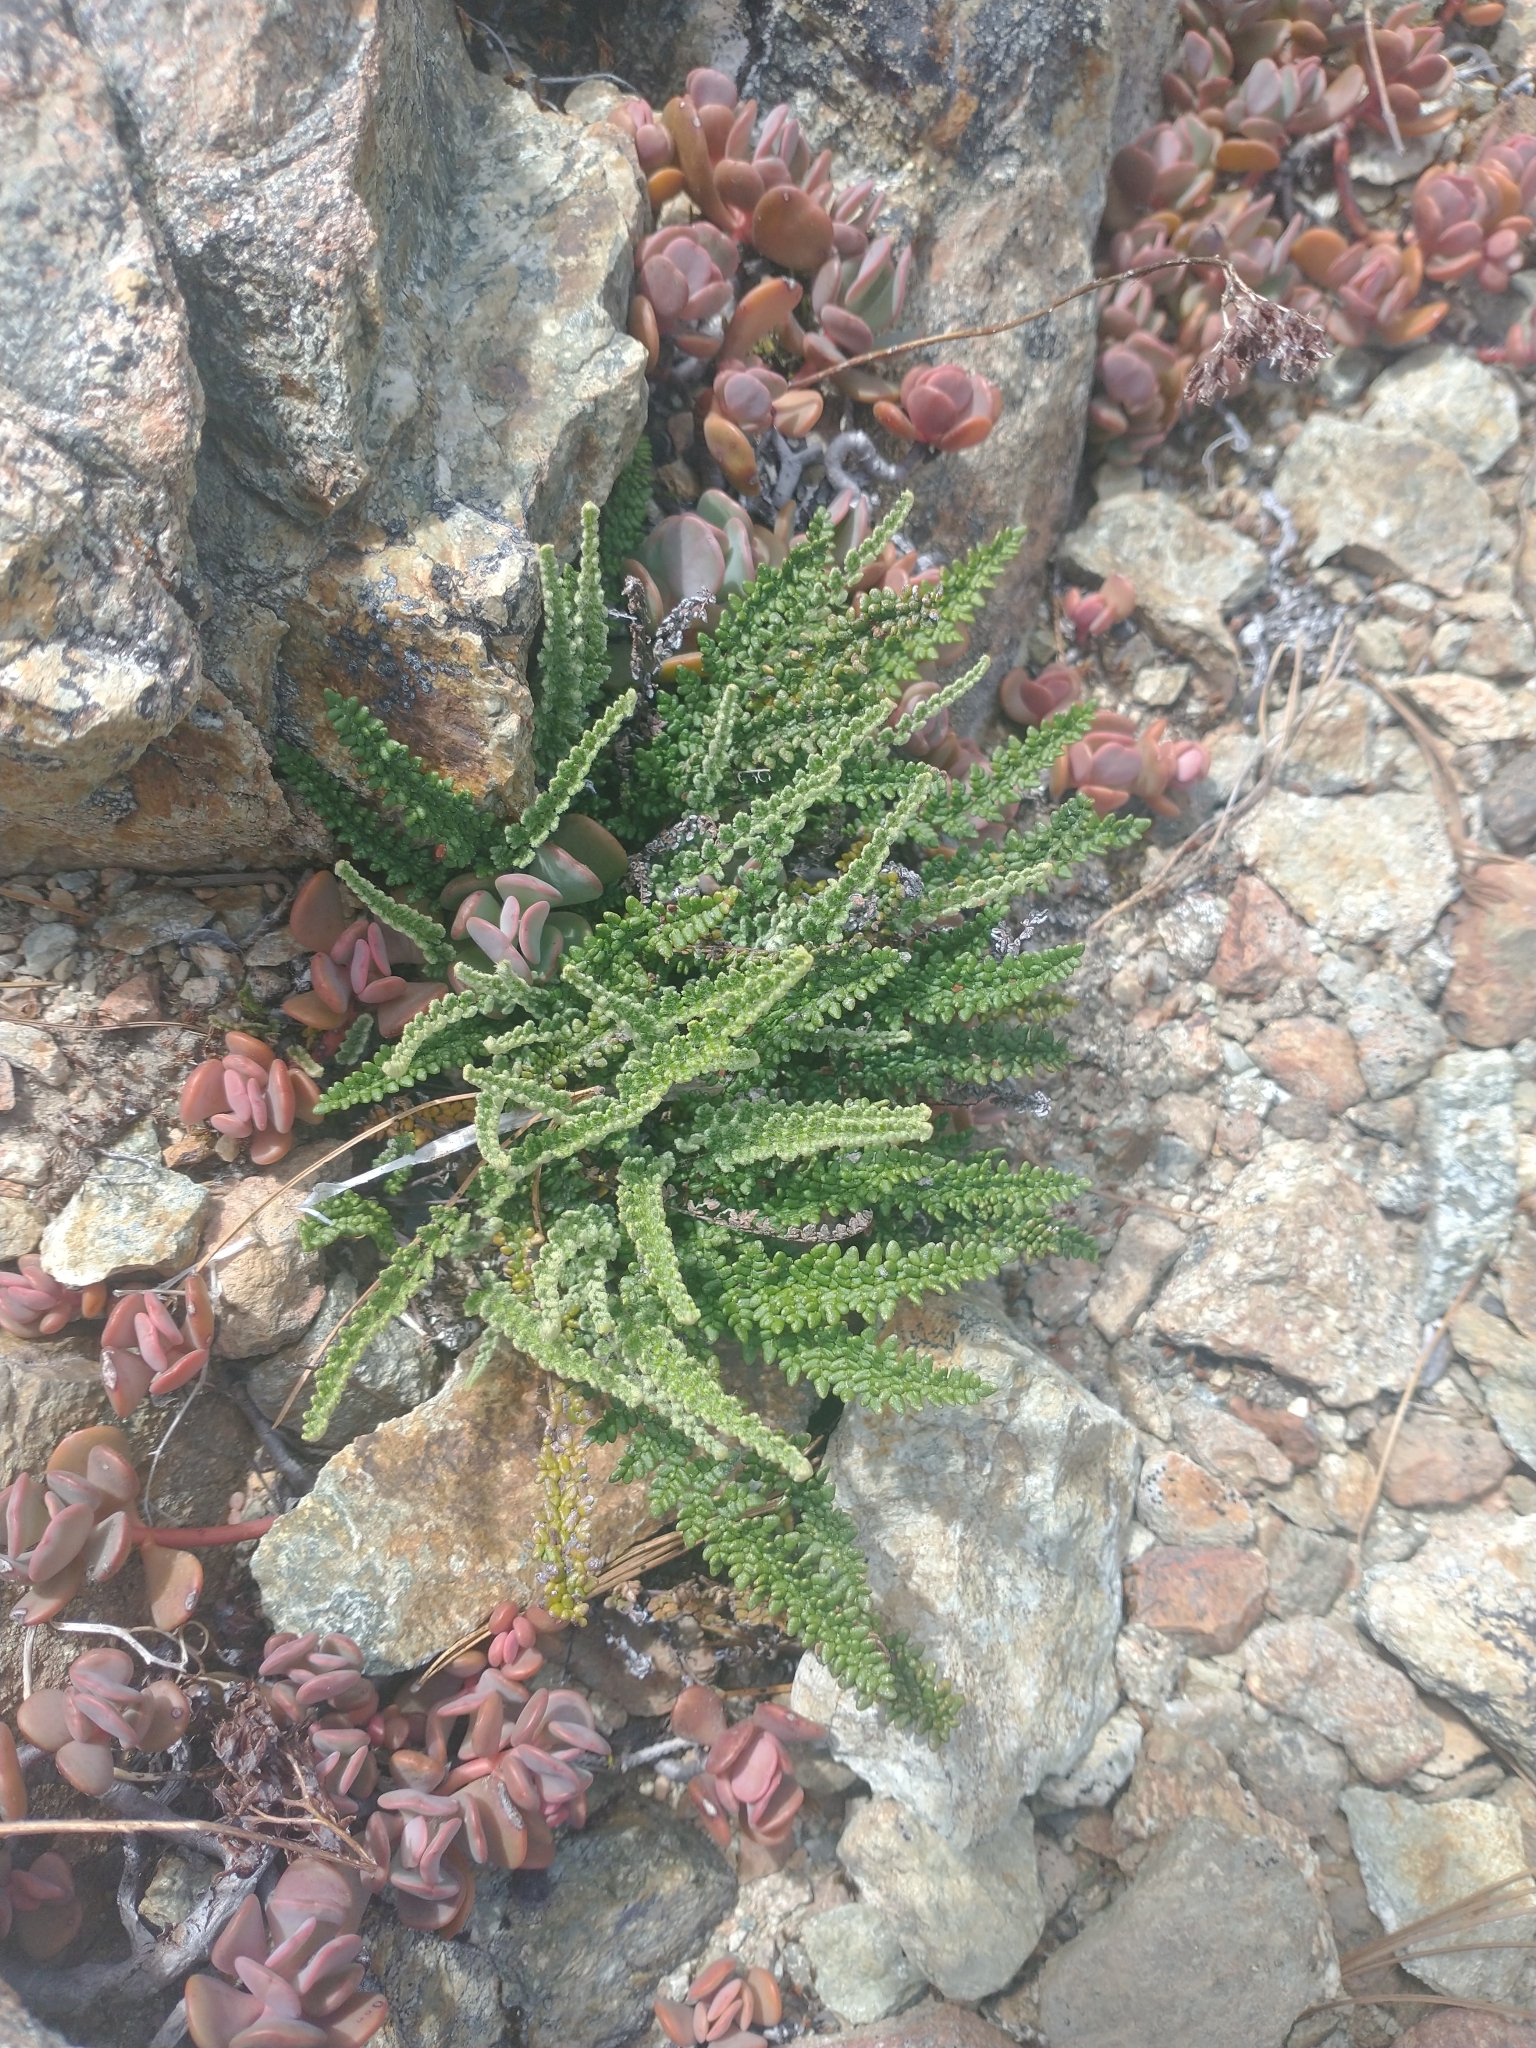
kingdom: Plantae
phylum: Tracheophyta
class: Polypodiopsida
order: Polypodiales
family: Pteridaceae
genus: Myriopteris
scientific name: Myriopteris gracillima
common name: Lace fern
